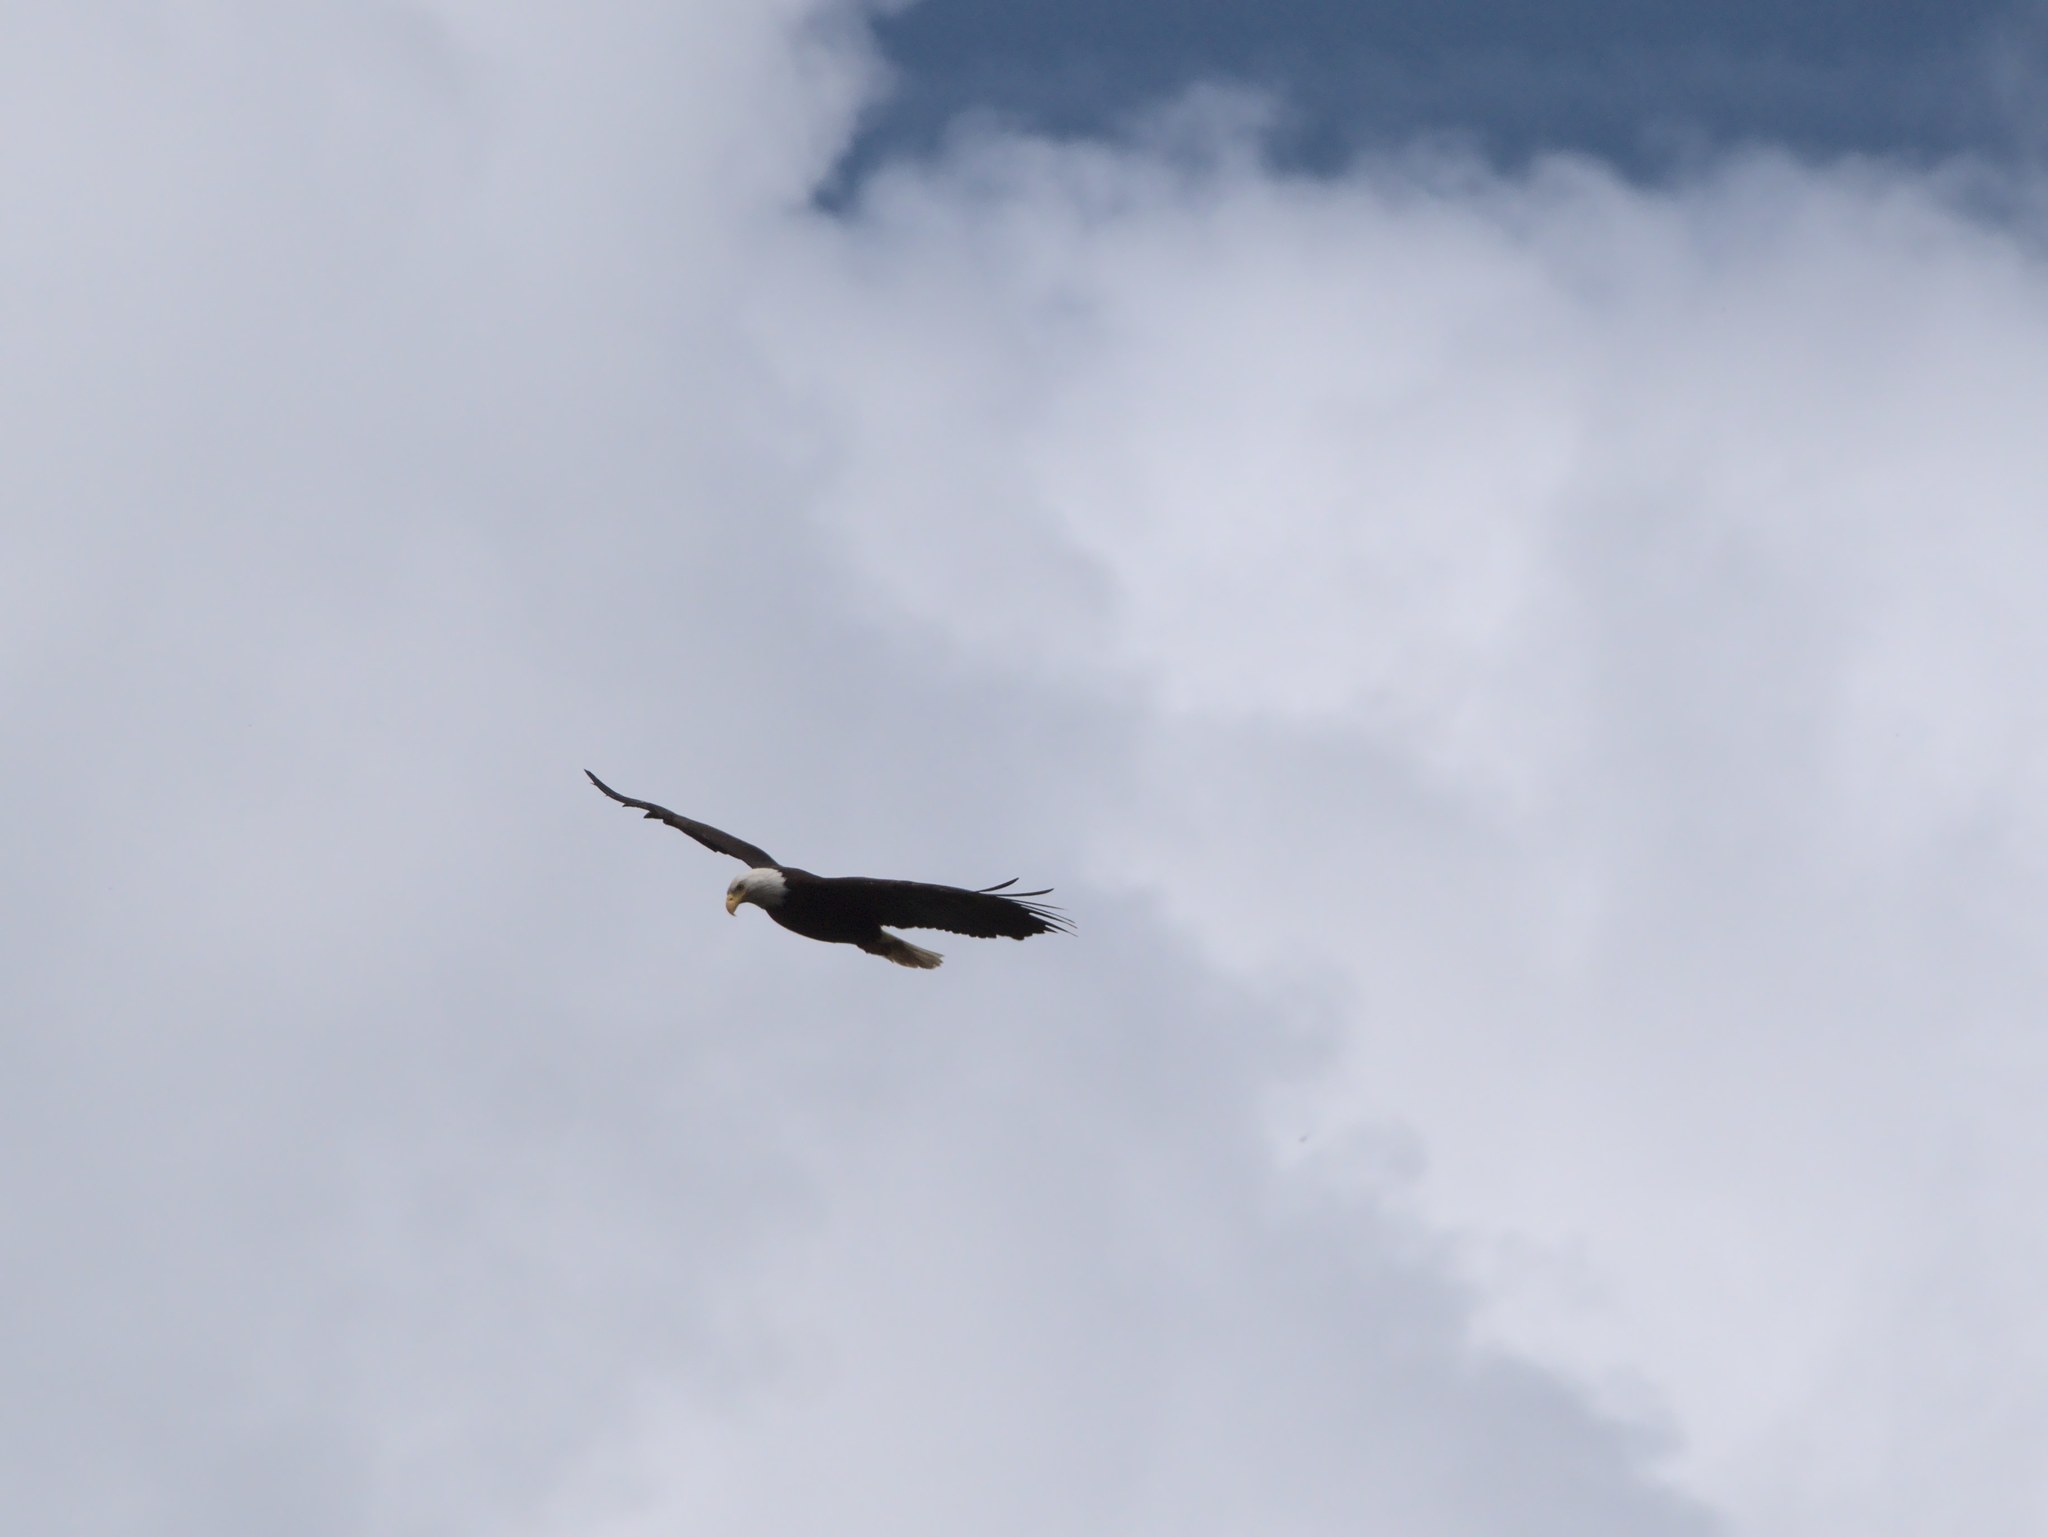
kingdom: Animalia
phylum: Chordata
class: Aves
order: Accipitriformes
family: Accipitridae
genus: Haliaeetus
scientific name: Haliaeetus leucocephalus
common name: Bald eagle
